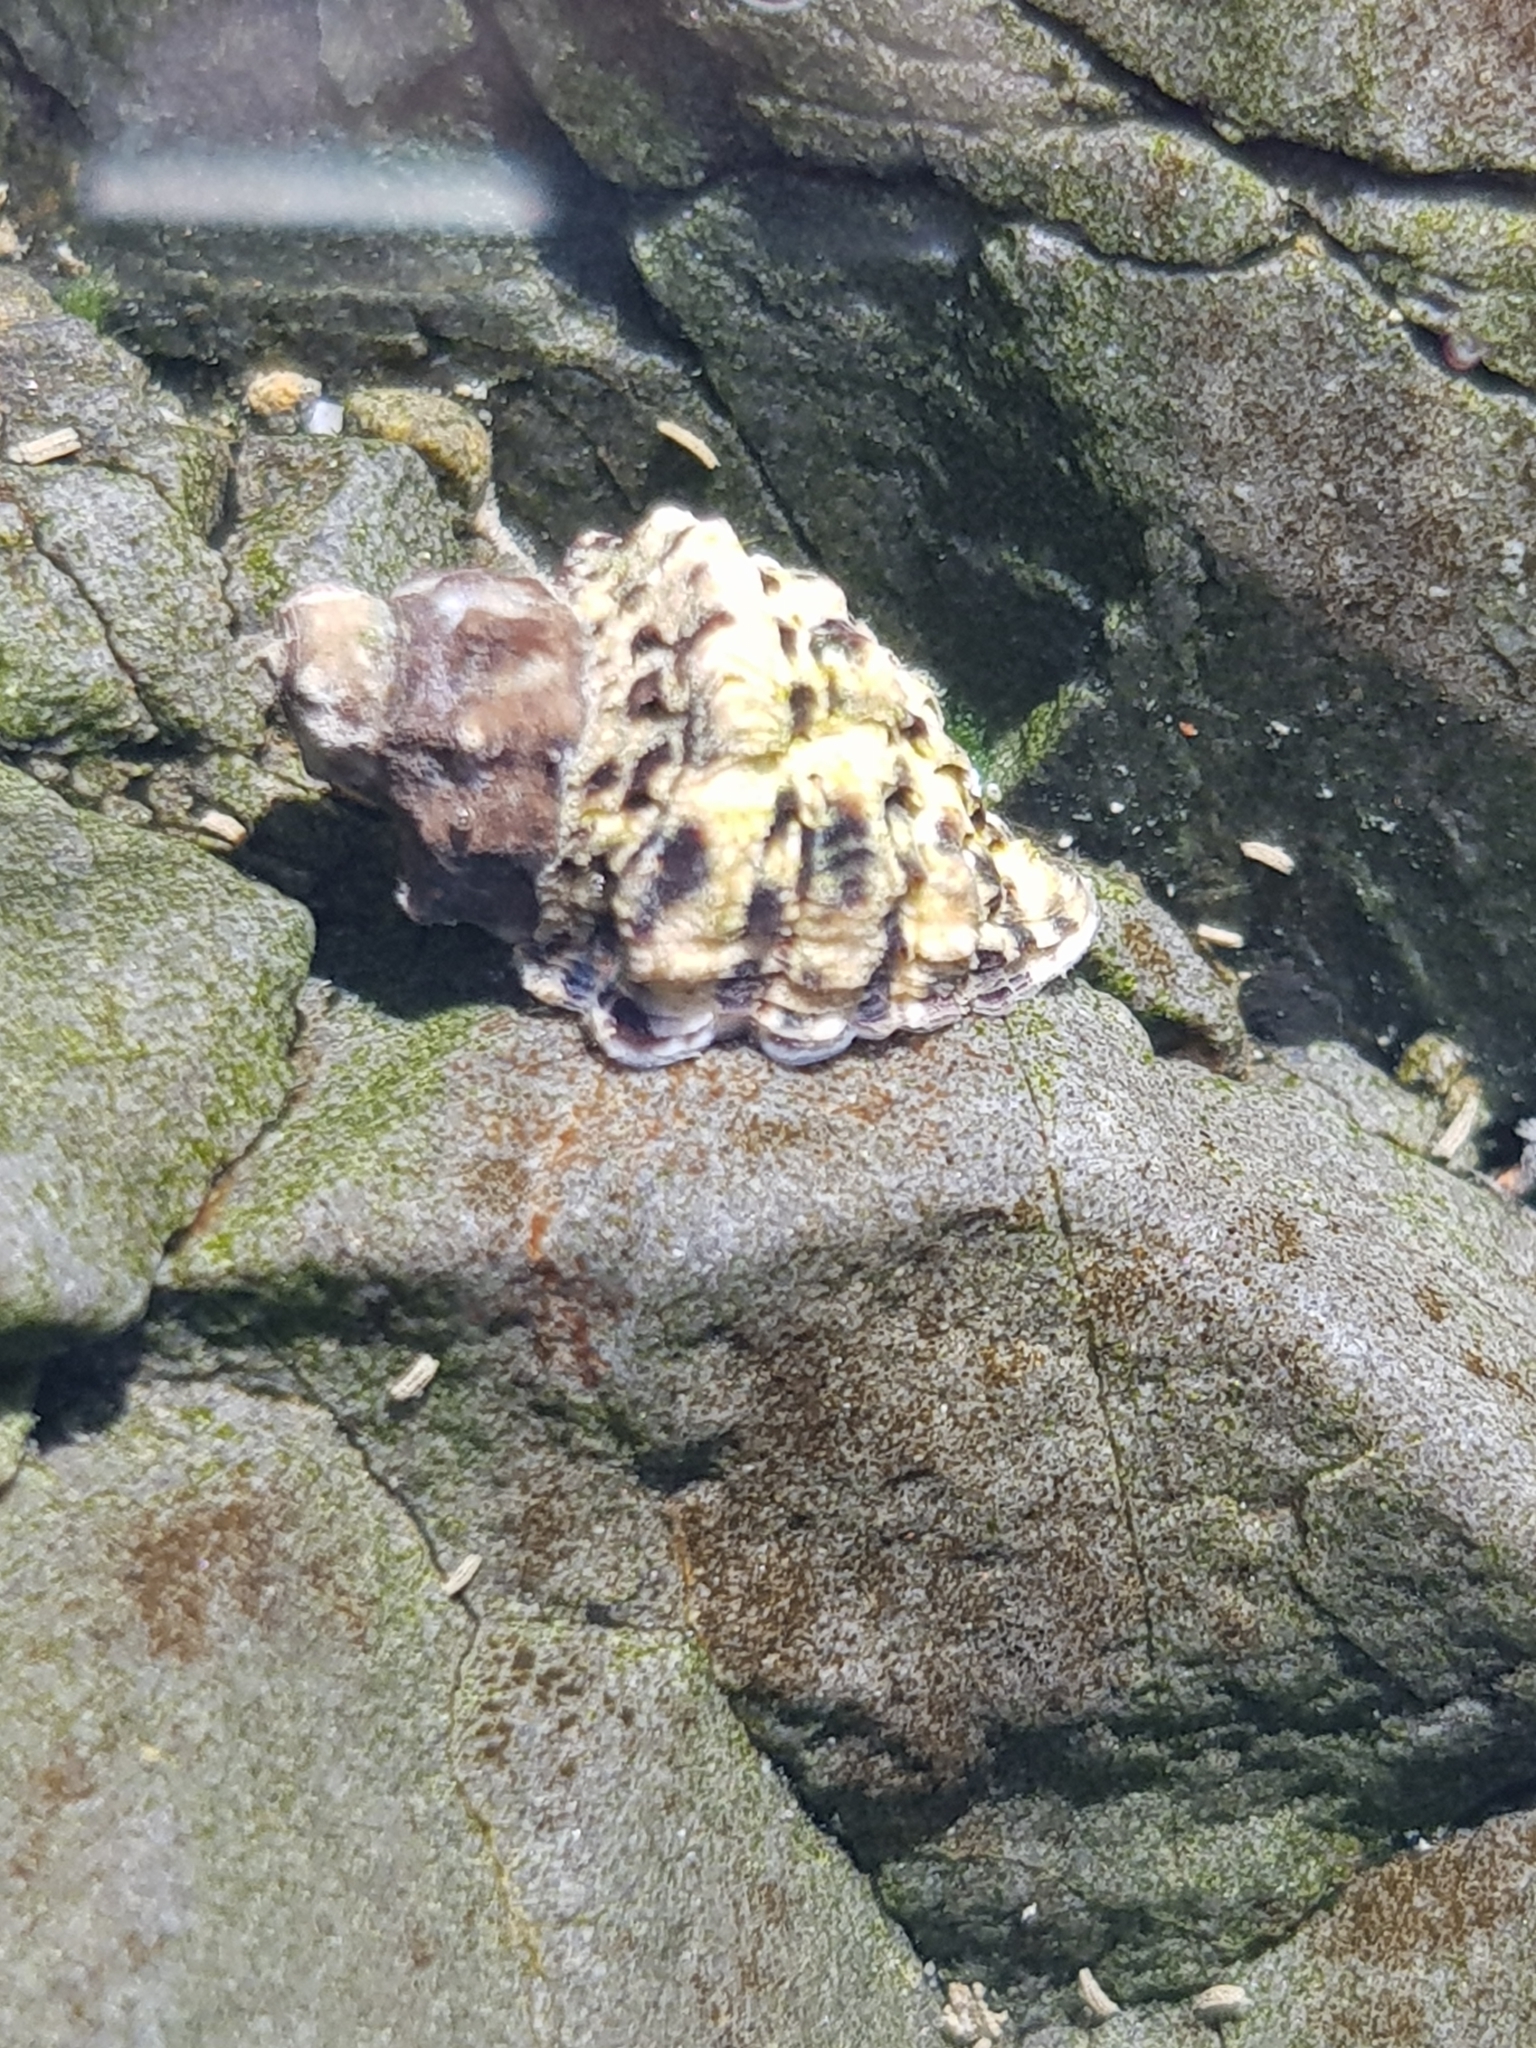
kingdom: Animalia
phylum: Mollusca
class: Gastropoda
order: Neogastropoda
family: Muricidae
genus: Haustrum
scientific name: Haustrum scobina
